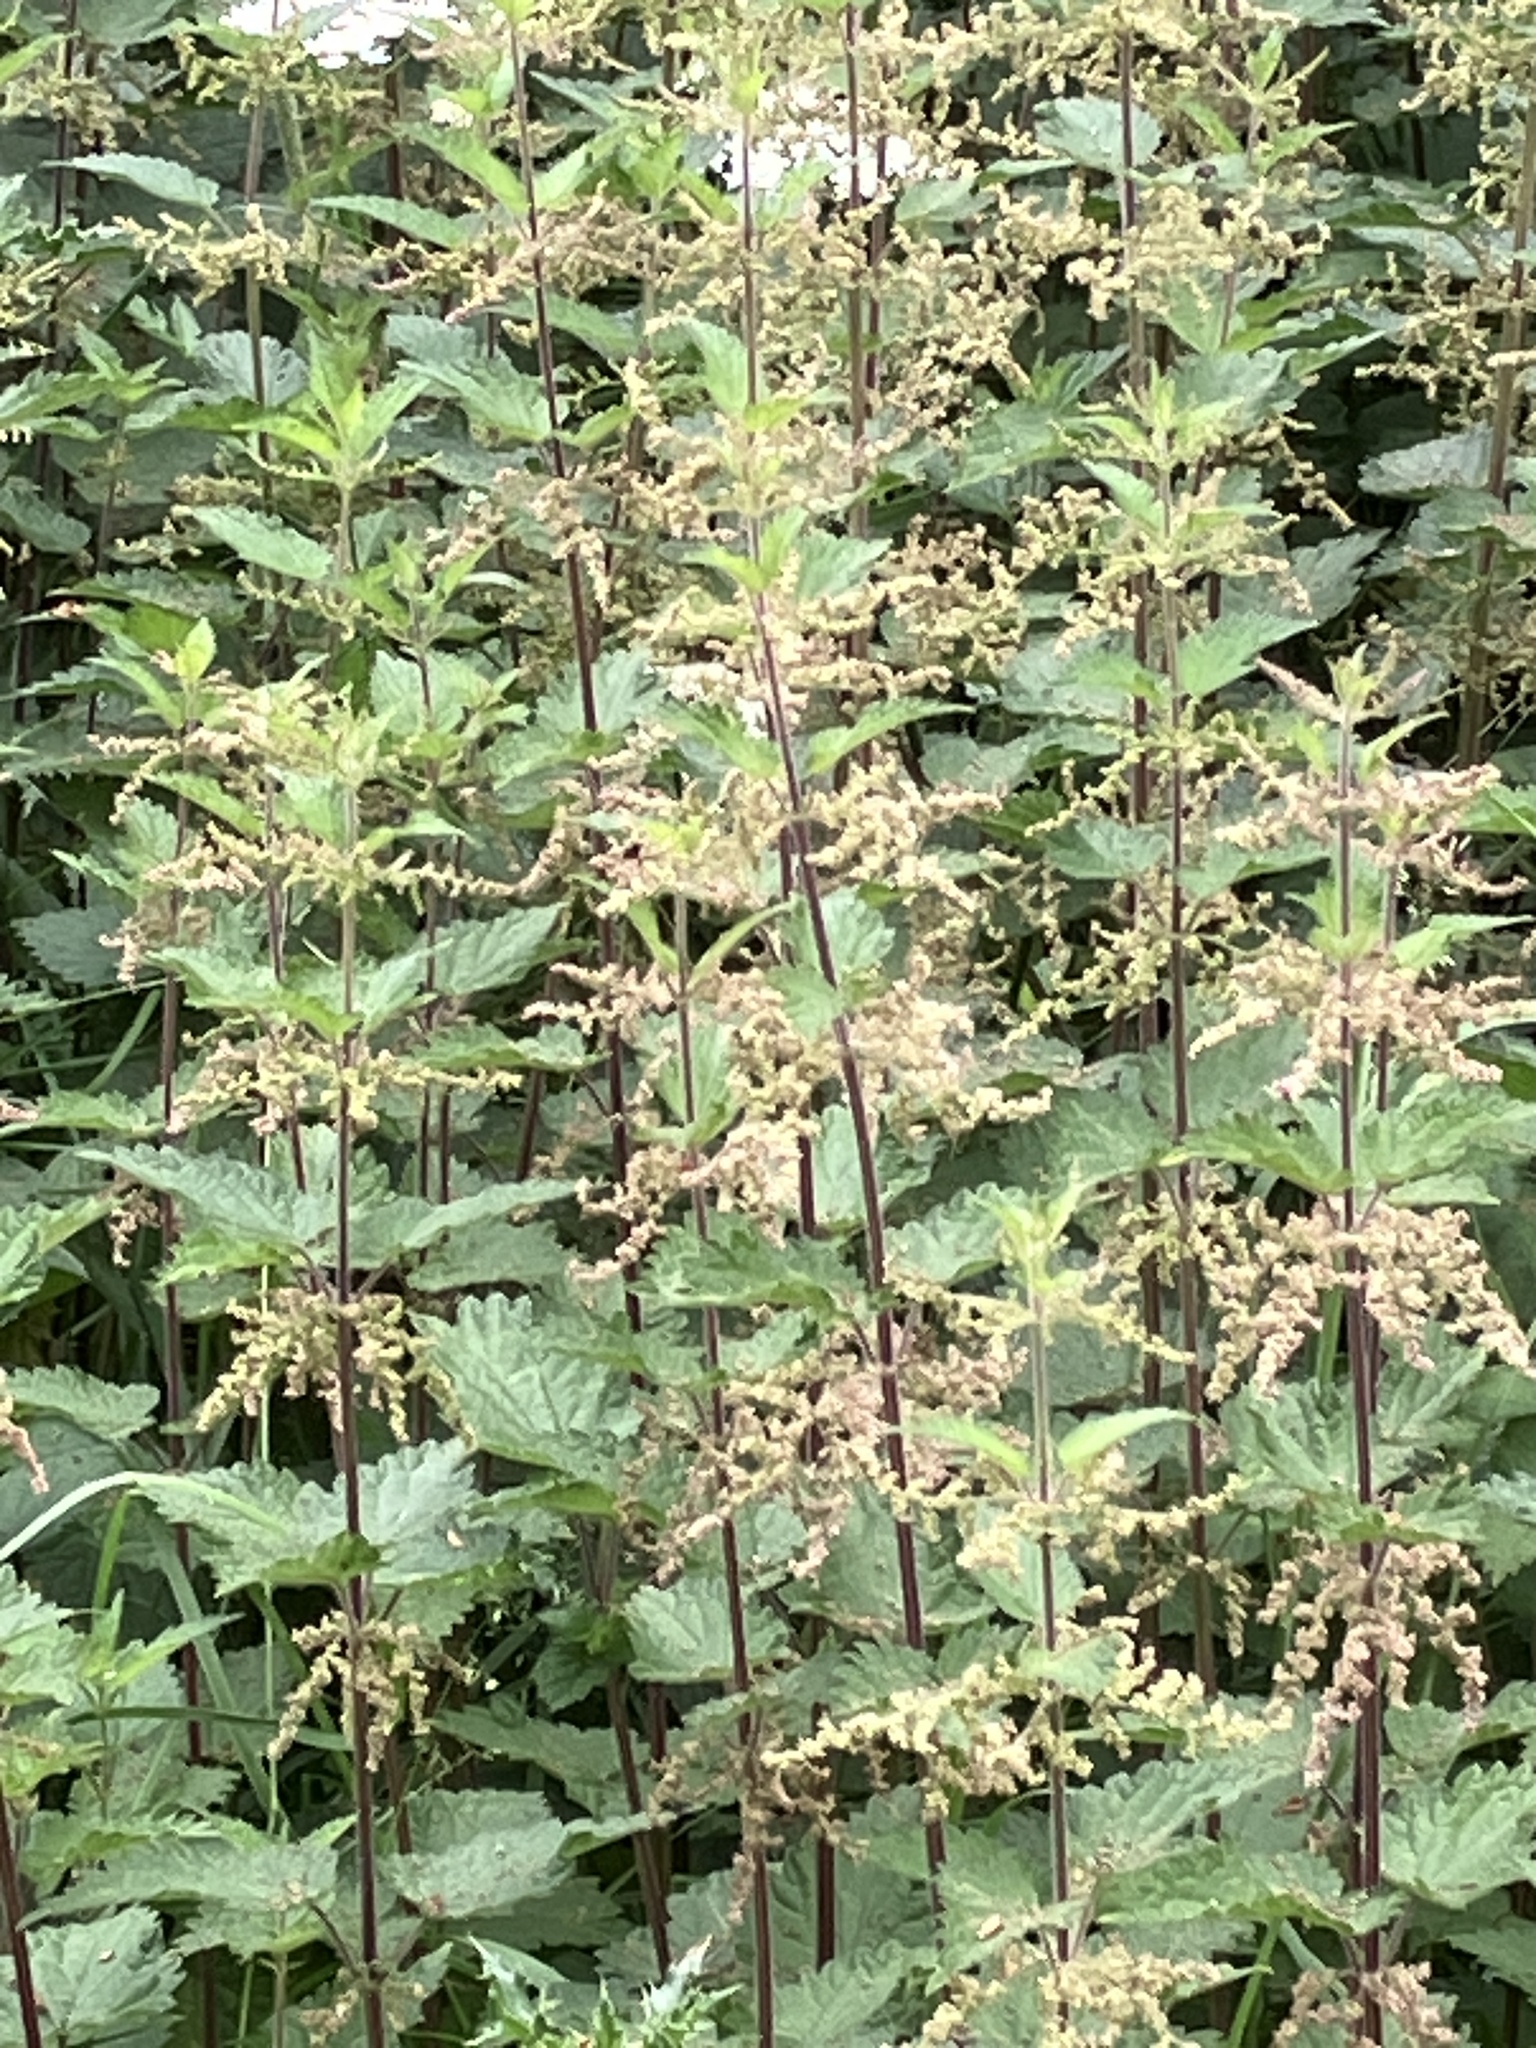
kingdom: Plantae
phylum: Tracheophyta
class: Magnoliopsida
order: Rosales
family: Urticaceae
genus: Urtica
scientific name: Urtica dioica
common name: Common nettle
